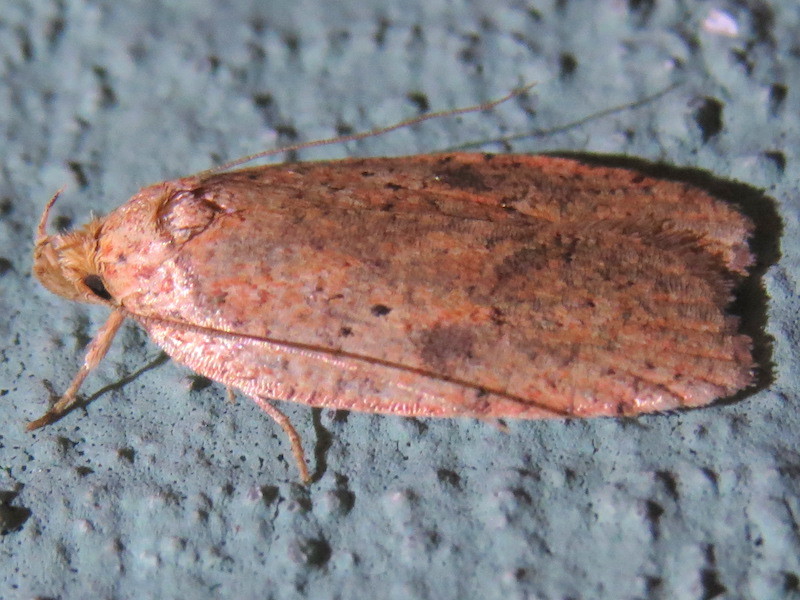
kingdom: Animalia
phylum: Arthropoda
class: Insecta
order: Lepidoptera
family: Depressariidae
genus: Agonopterix
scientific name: Agonopterix thelmae
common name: Thelma's agonopterix moth
